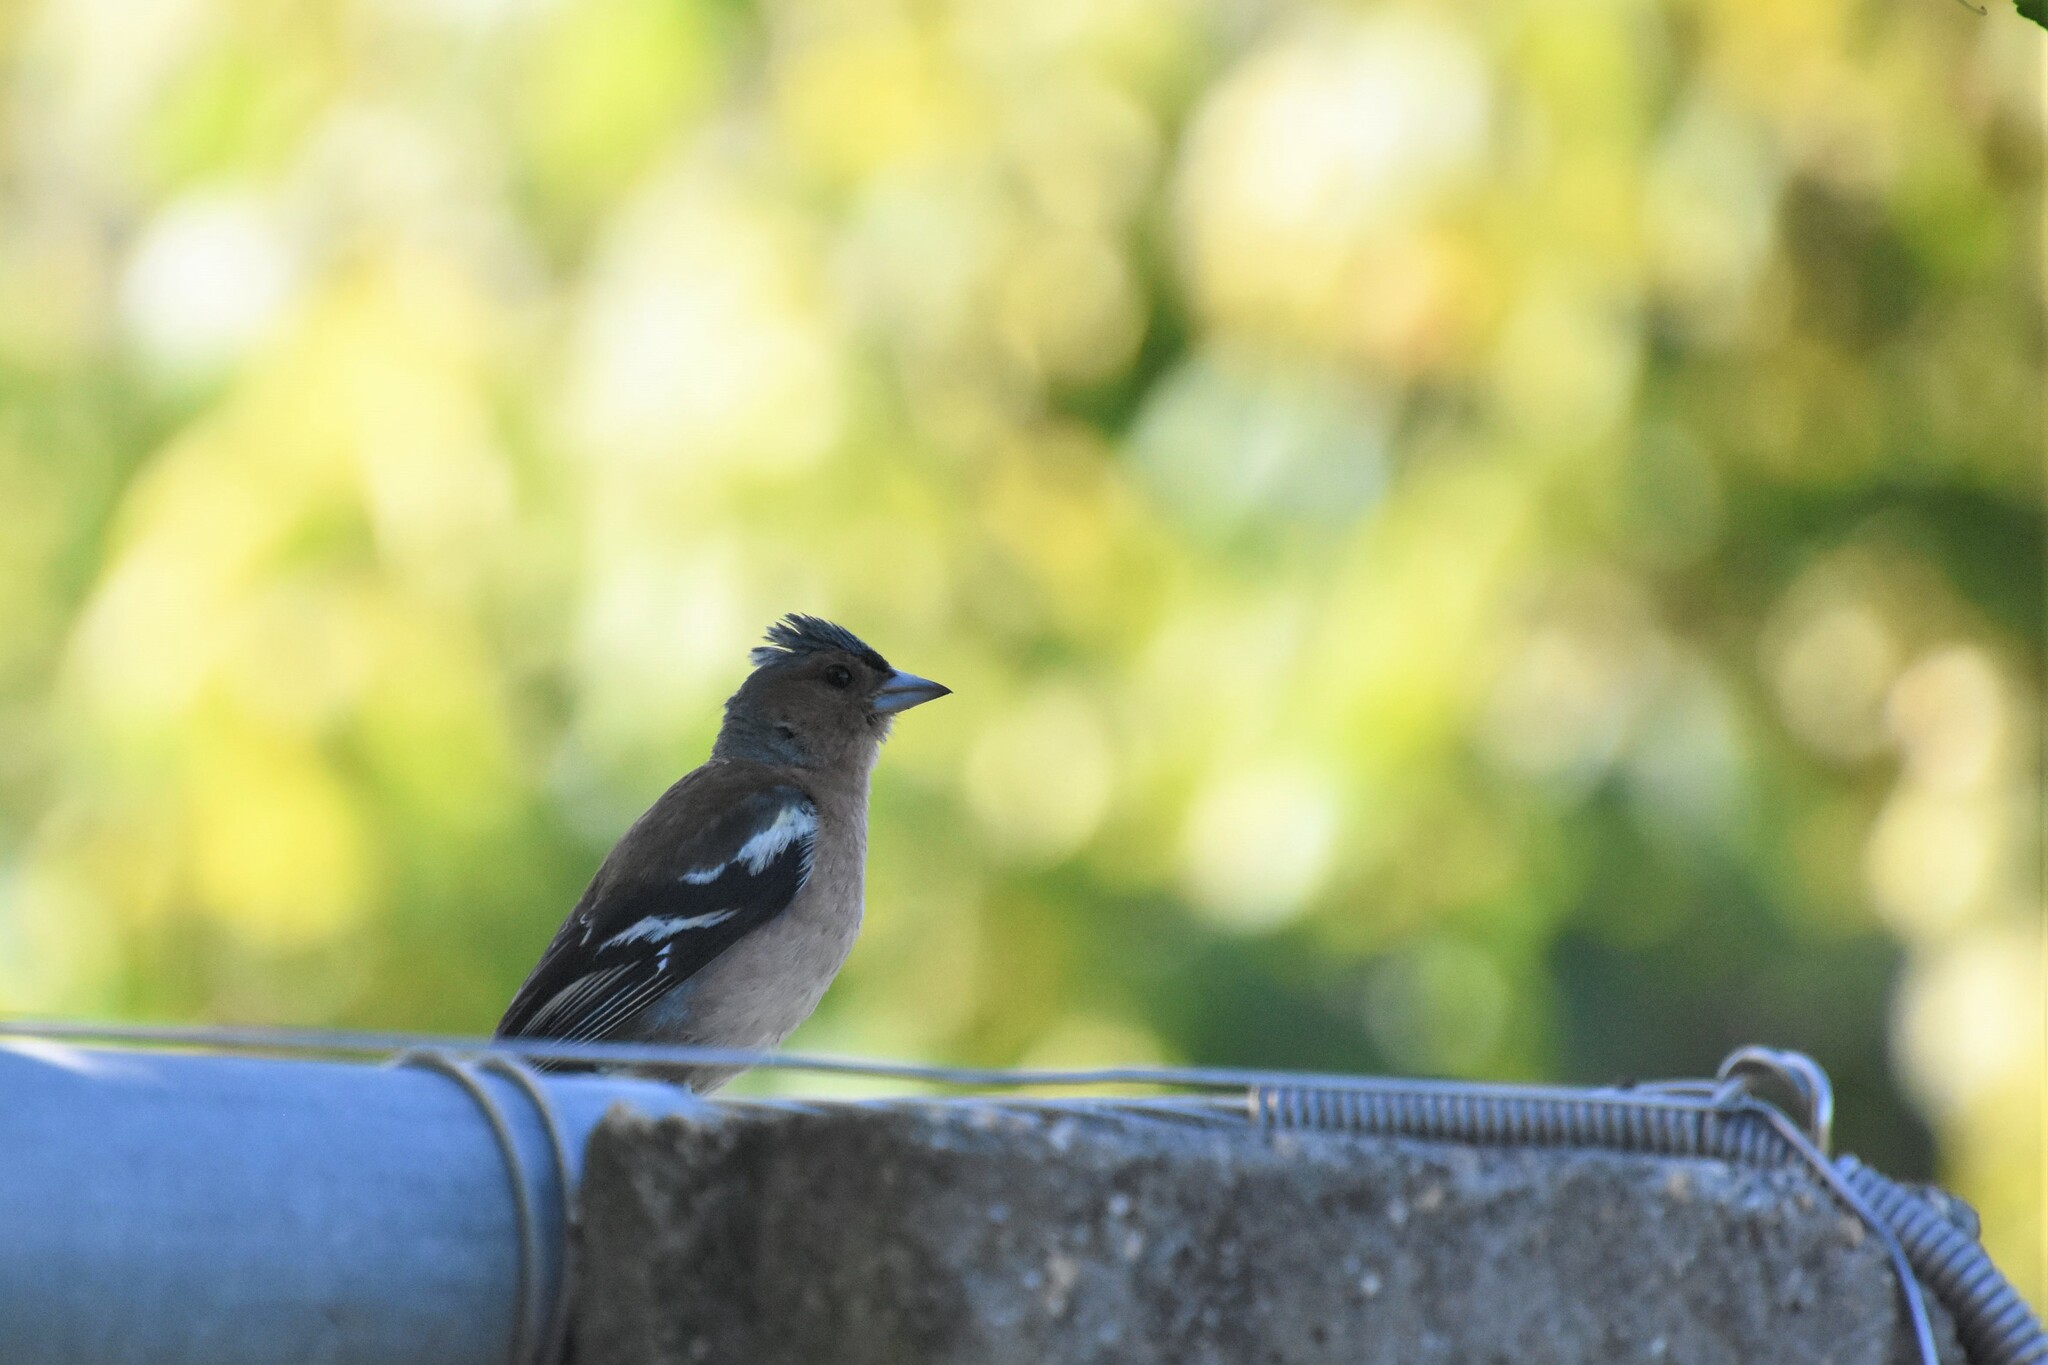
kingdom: Animalia
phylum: Chordata
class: Aves
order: Passeriformes
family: Fringillidae
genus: Fringilla
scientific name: Fringilla coelebs
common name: Common chaffinch
